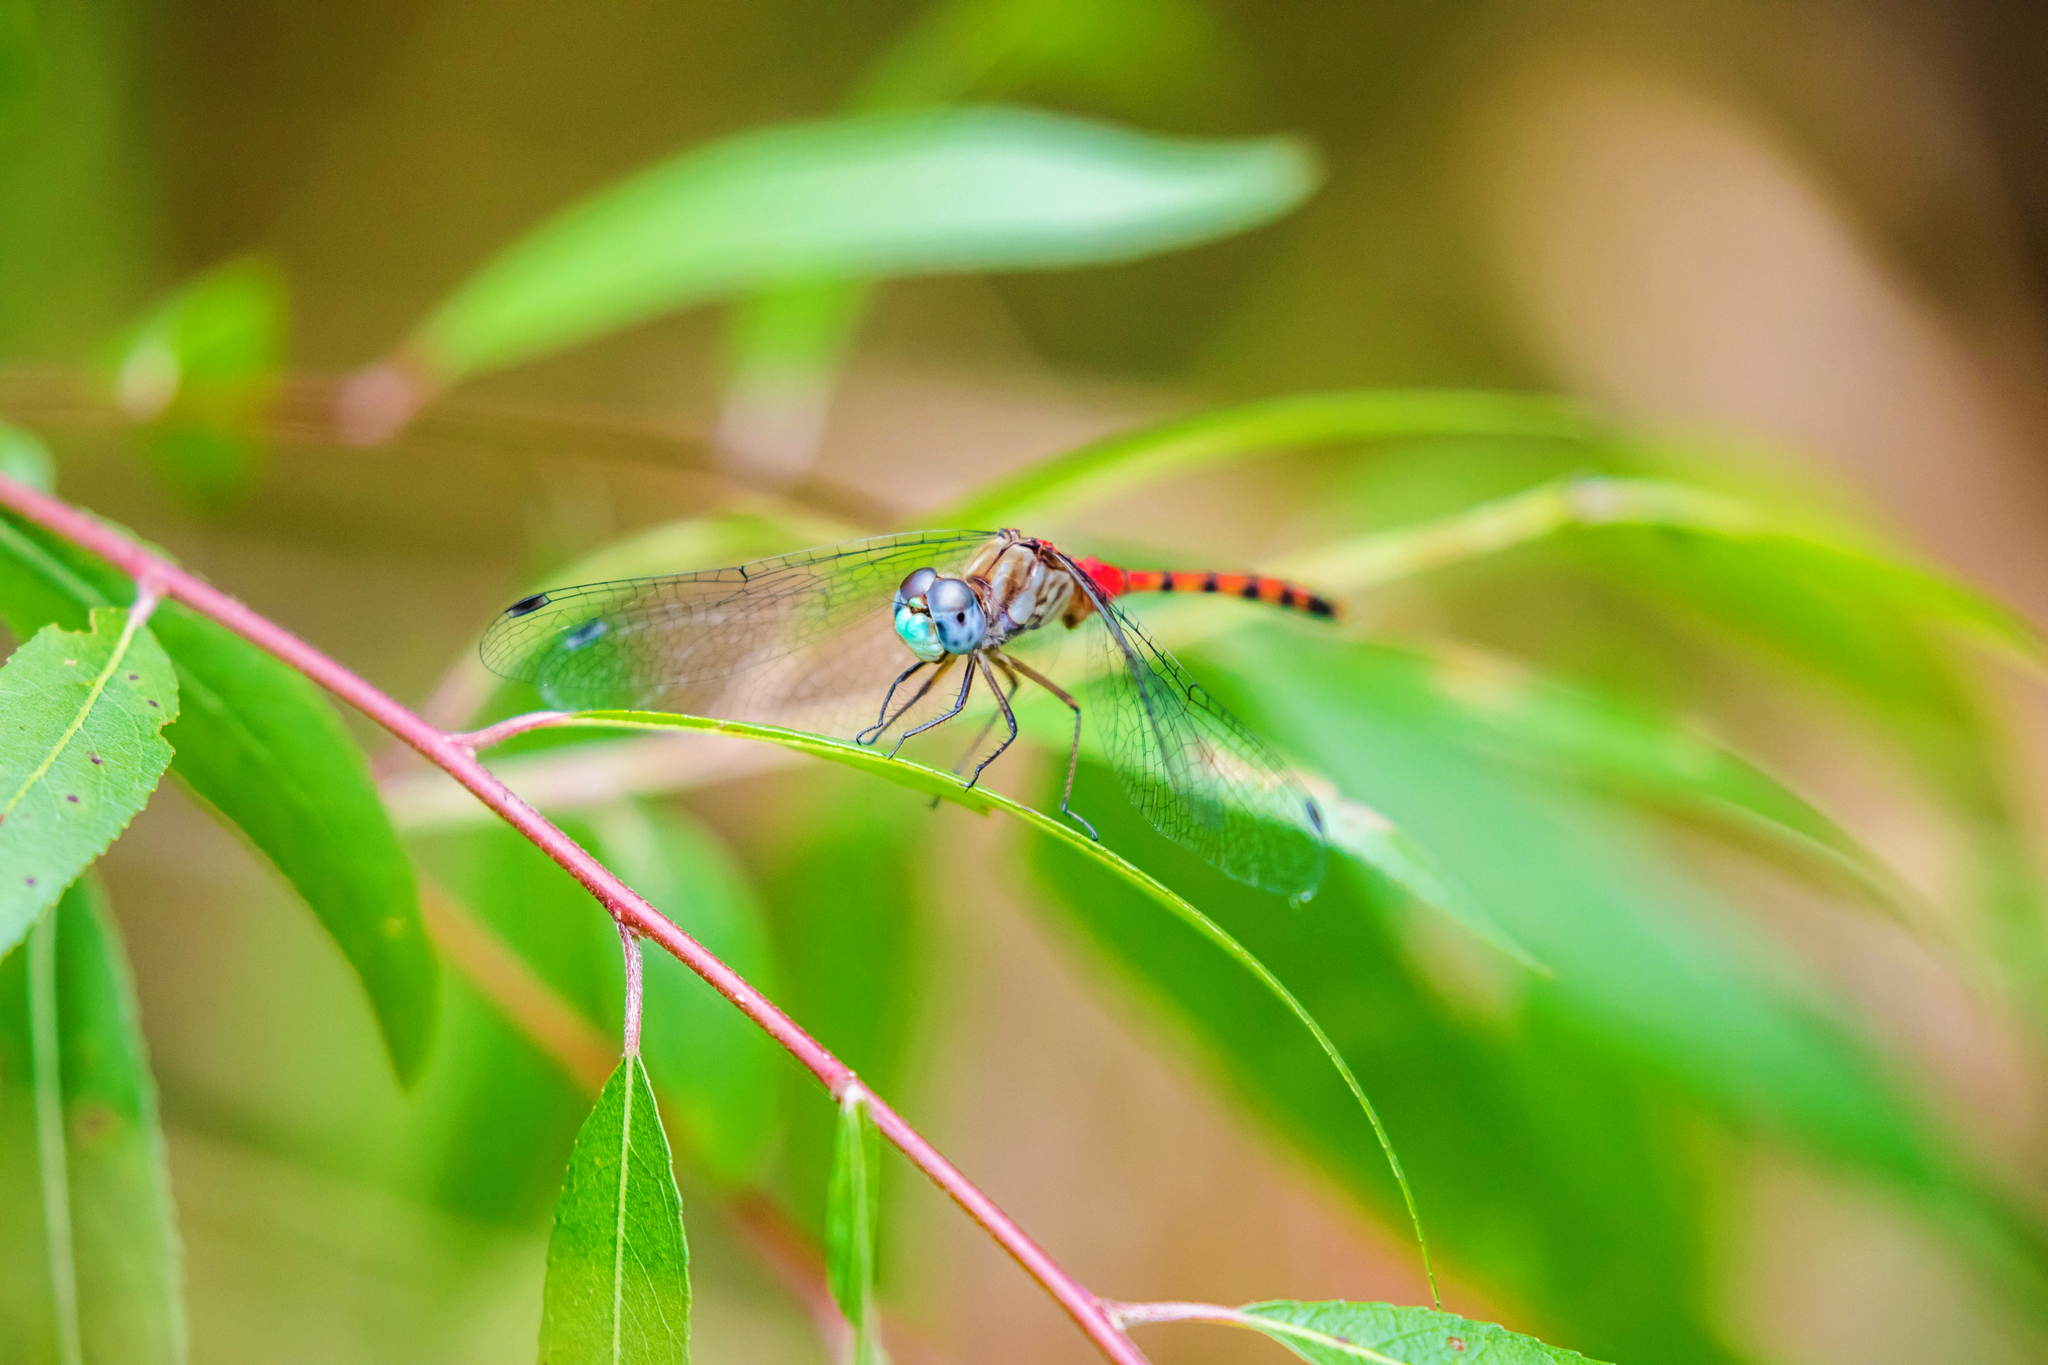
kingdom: Animalia
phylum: Arthropoda
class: Insecta
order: Odonata
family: Libellulidae
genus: Sympetrum
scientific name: Sympetrum ambiguum
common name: Blue-faced meadowhawk
